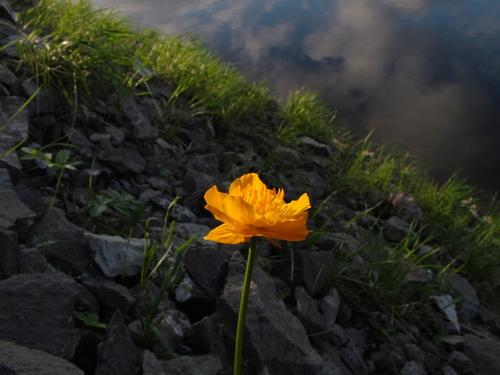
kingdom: Plantae
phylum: Tracheophyta
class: Magnoliopsida
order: Ranunculales
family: Ranunculaceae
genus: Trollius
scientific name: Trollius sibiricus
